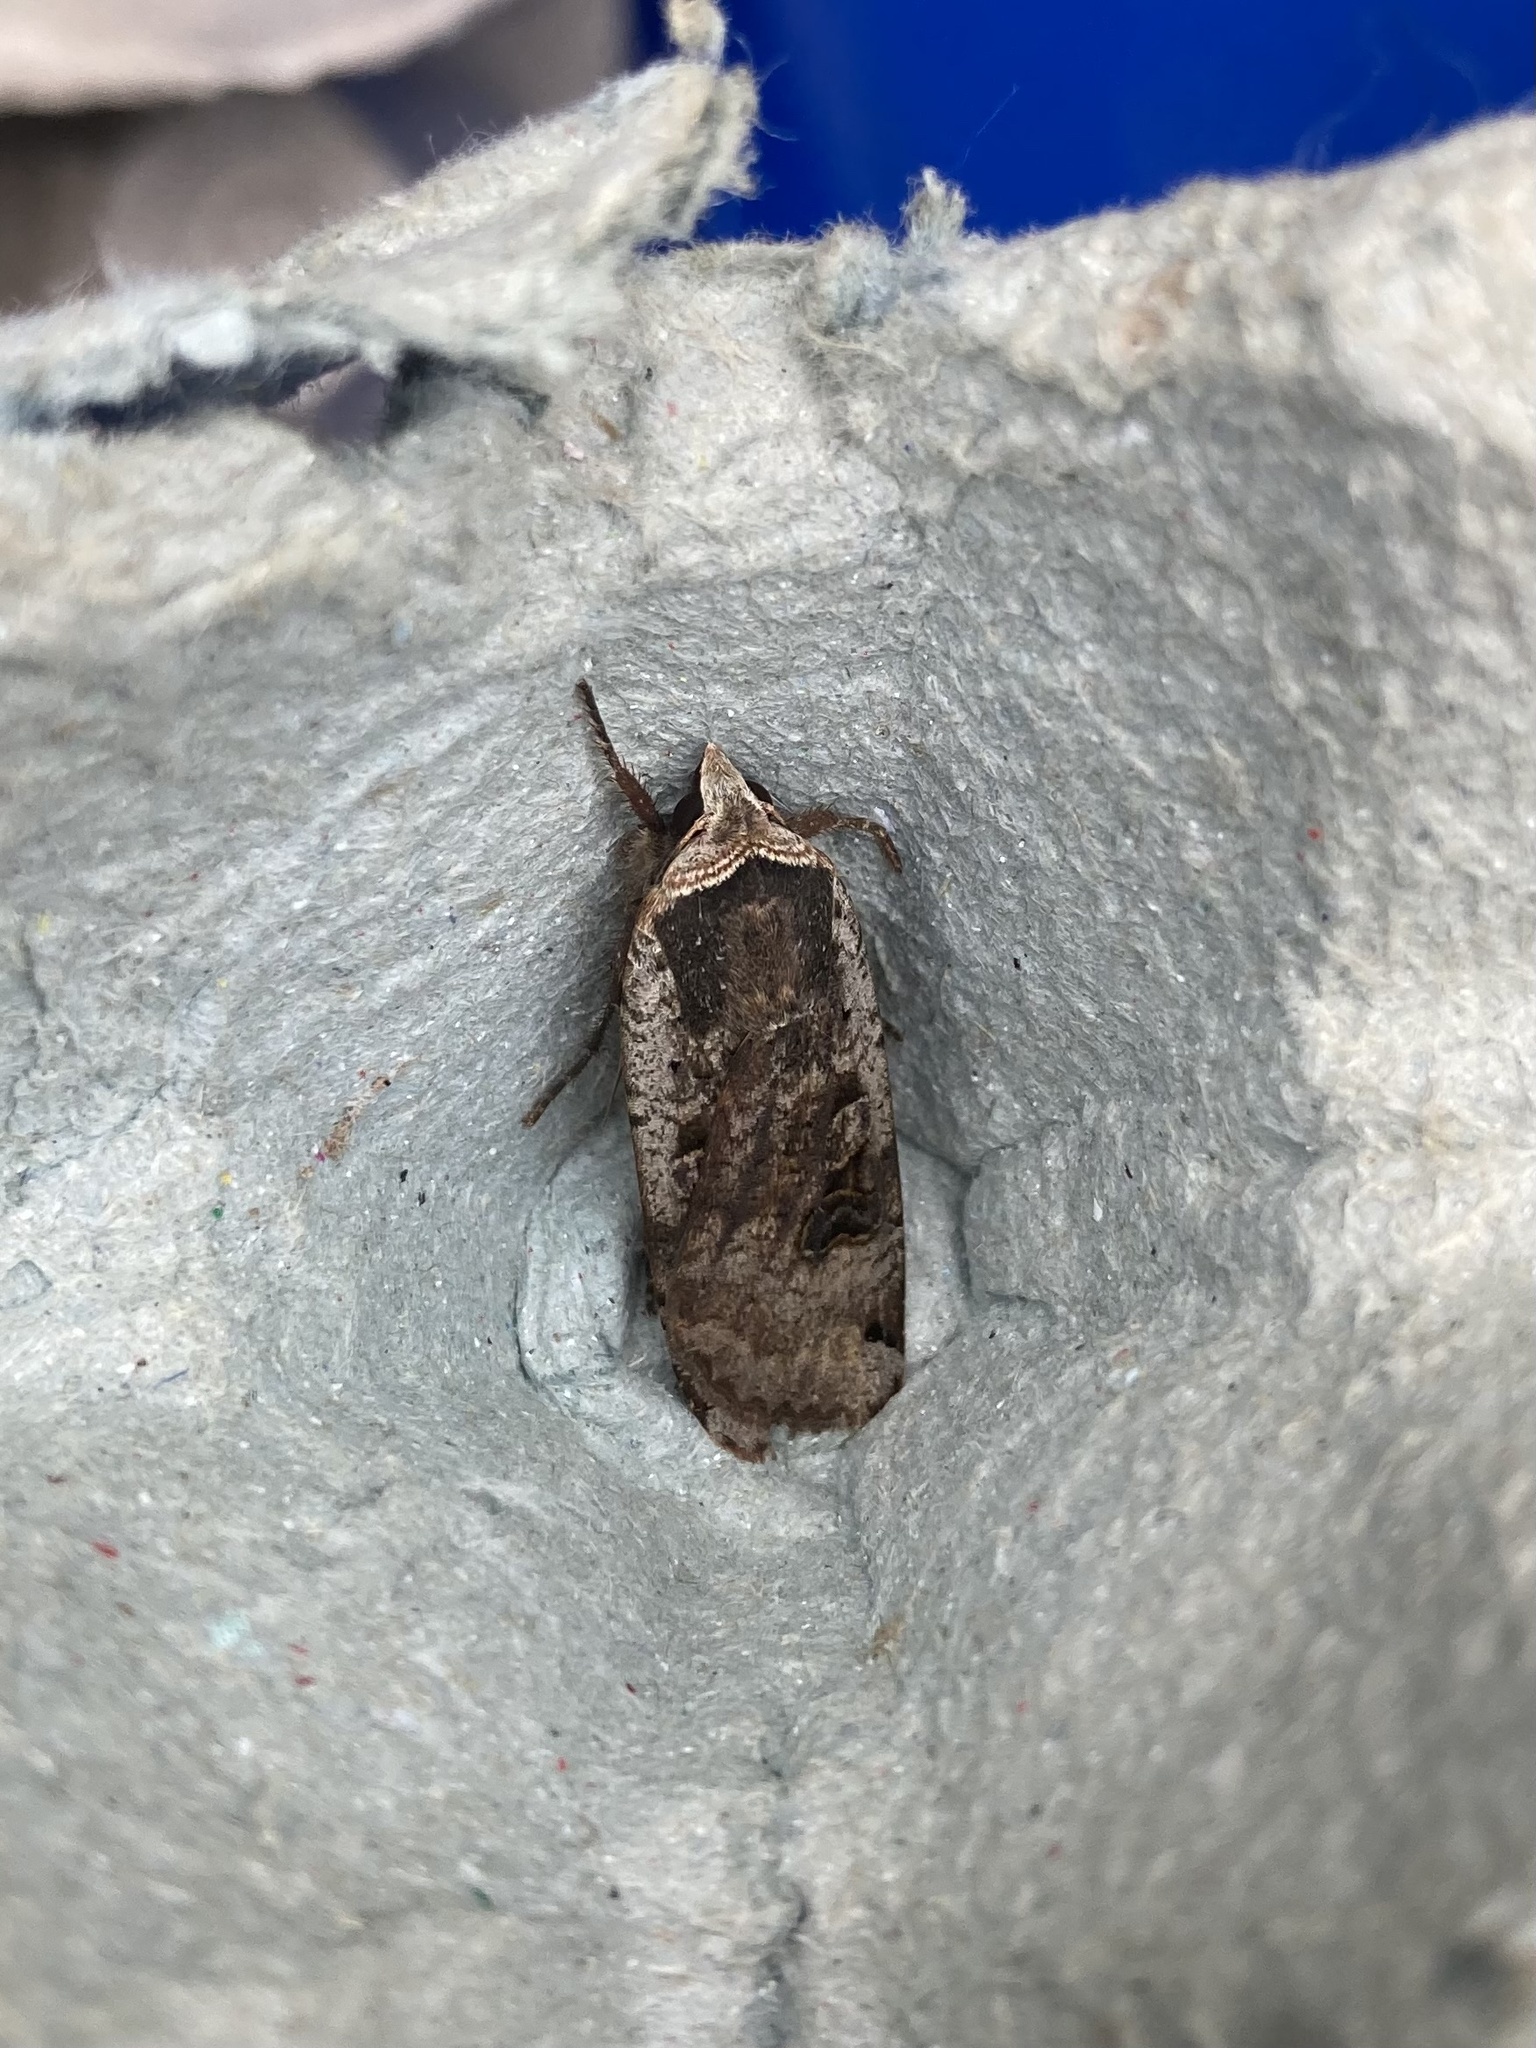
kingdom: Animalia
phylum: Arthropoda
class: Insecta
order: Lepidoptera
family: Noctuidae
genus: Noctua
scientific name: Noctua pronuba
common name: Large yellow underwing
